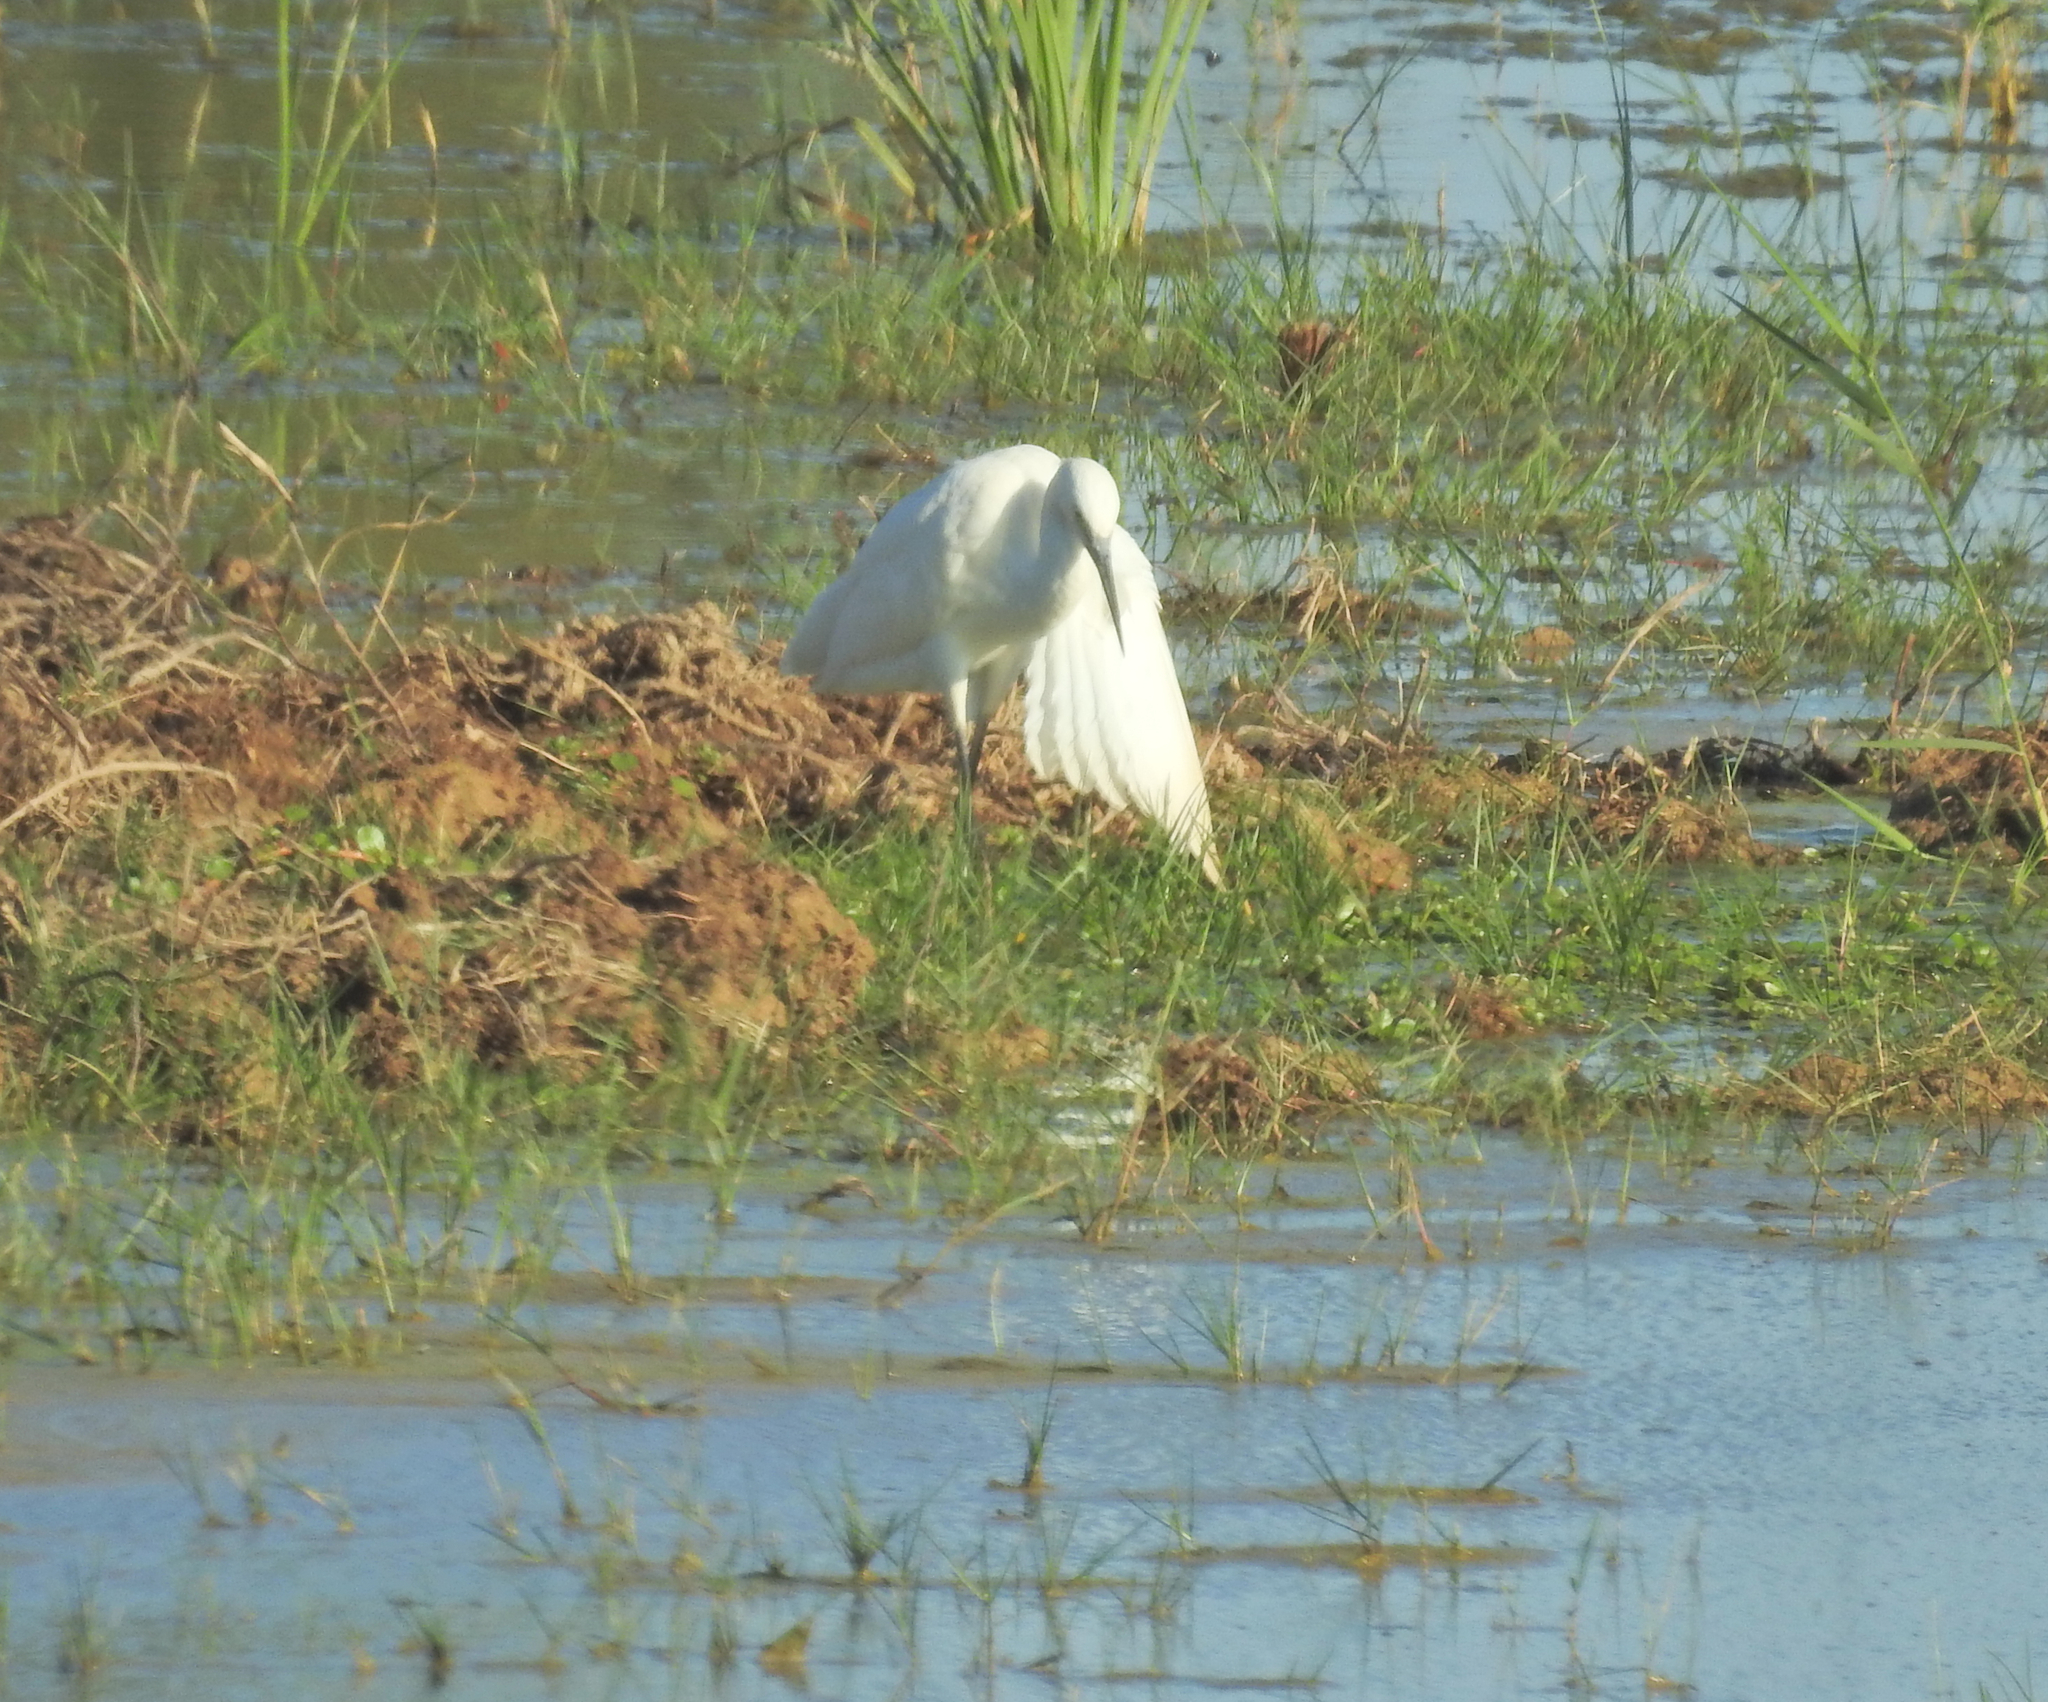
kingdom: Animalia
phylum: Chordata
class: Aves
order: Pelecaniformes
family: Ardeidae
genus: Egretta
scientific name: Egretta garzetta
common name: Little egret
